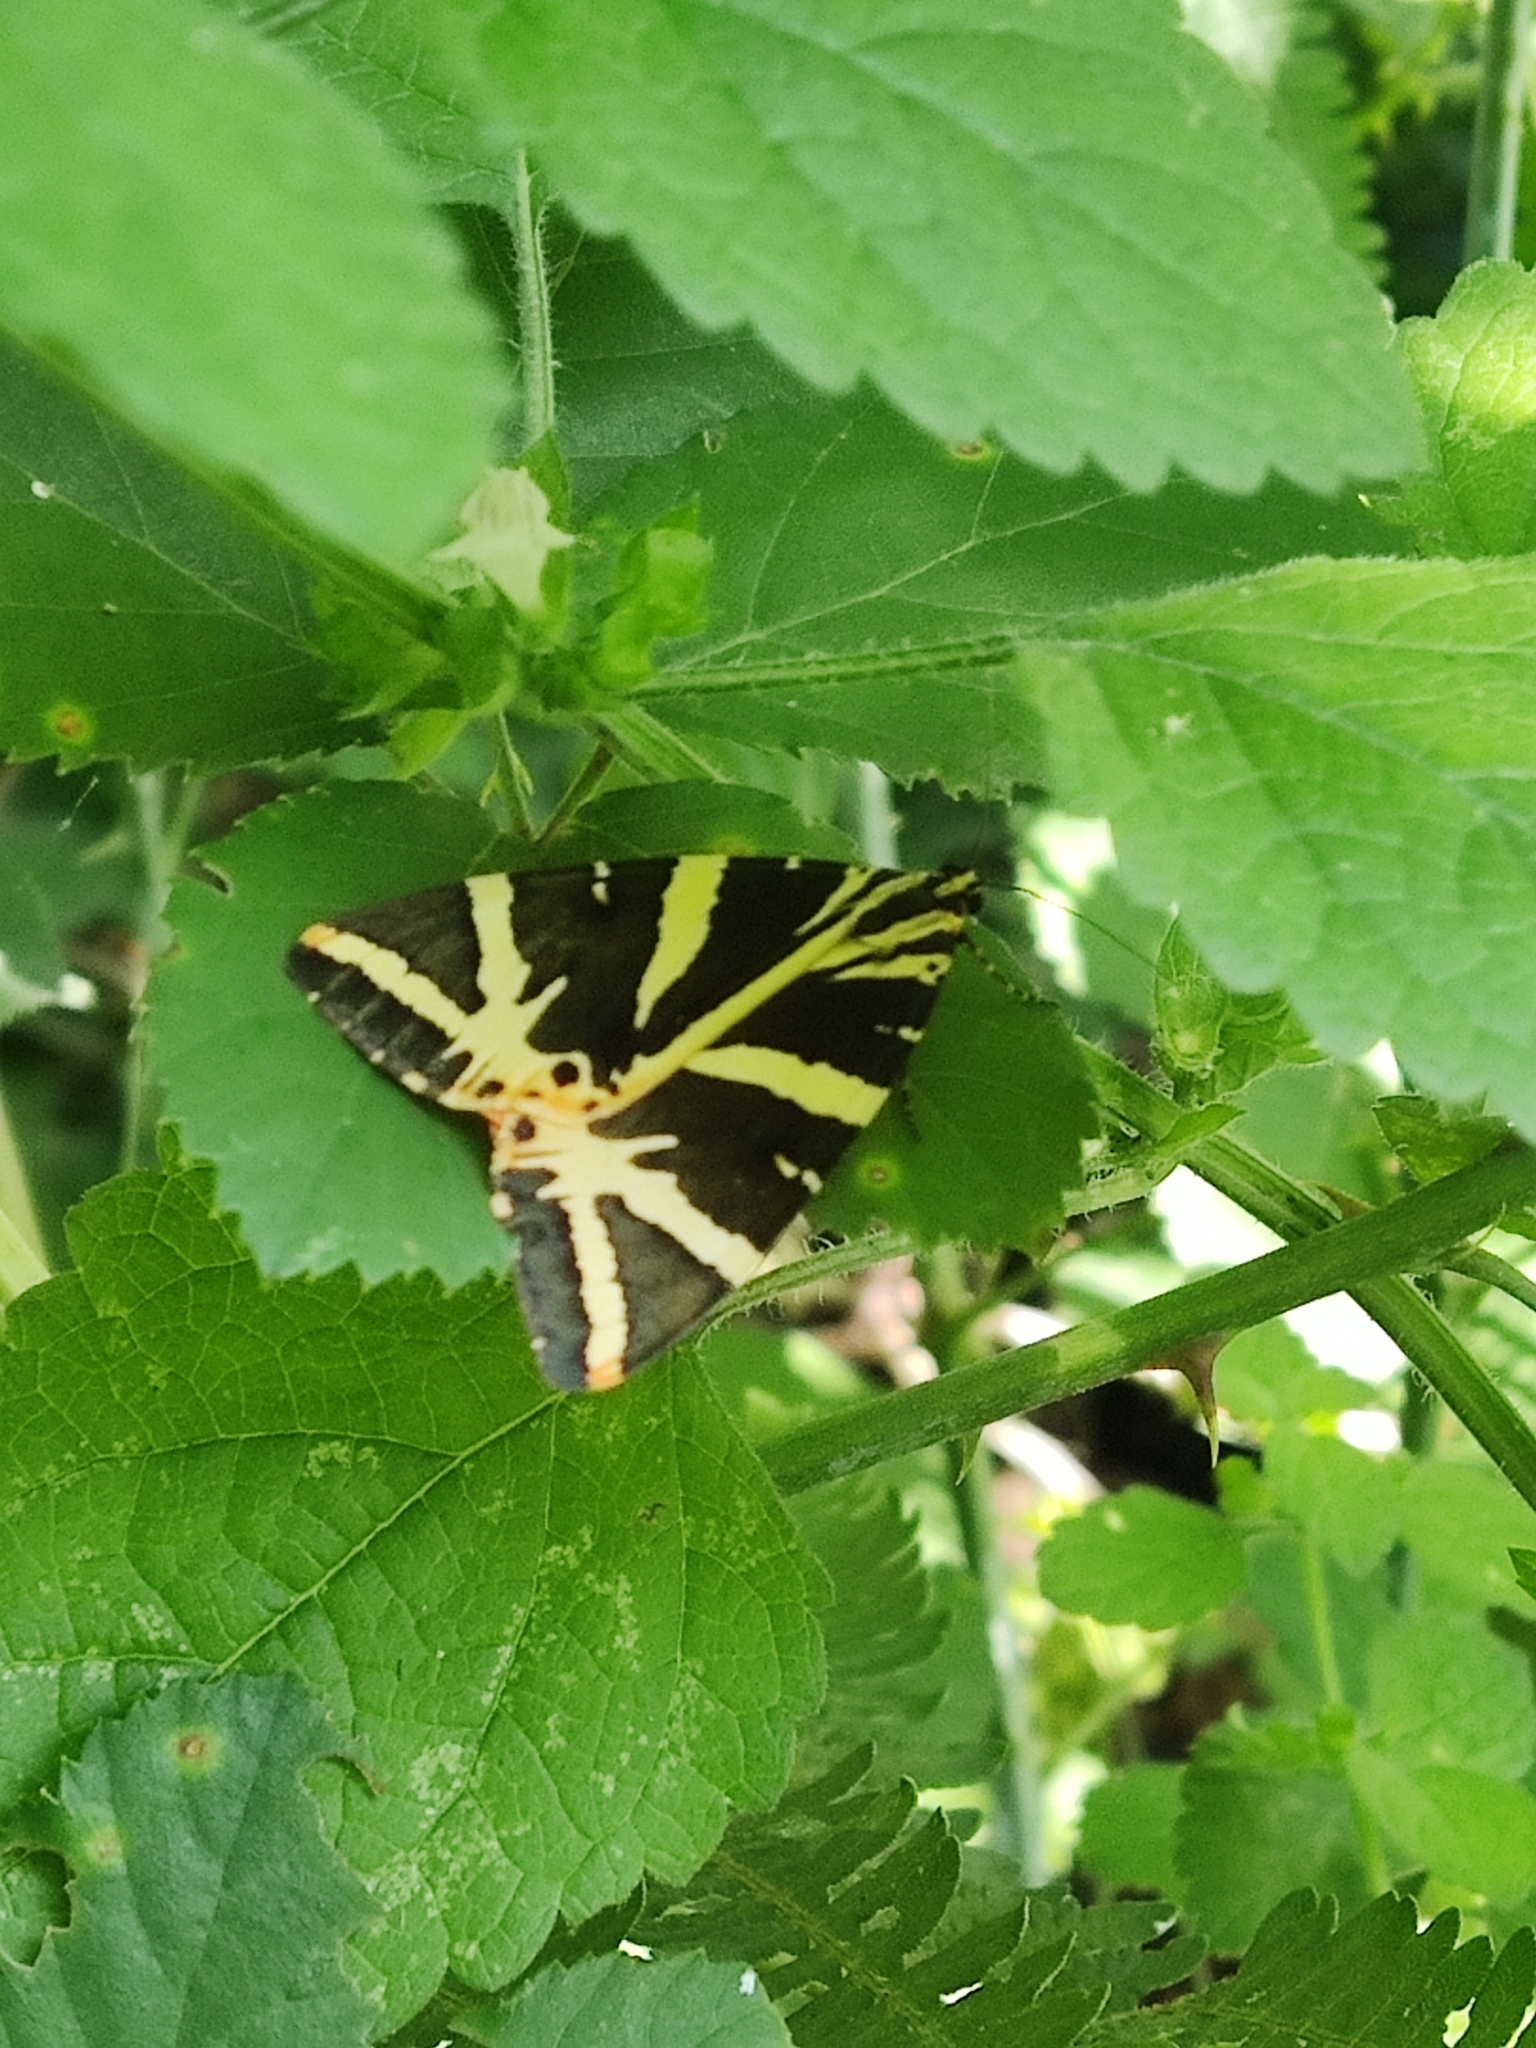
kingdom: Animalia
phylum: Arthropoda
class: Insecta
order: Lepidoptera
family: Erebidae
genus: Euplagia
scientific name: Euplagia quadripunctaria
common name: Jersey tiger
